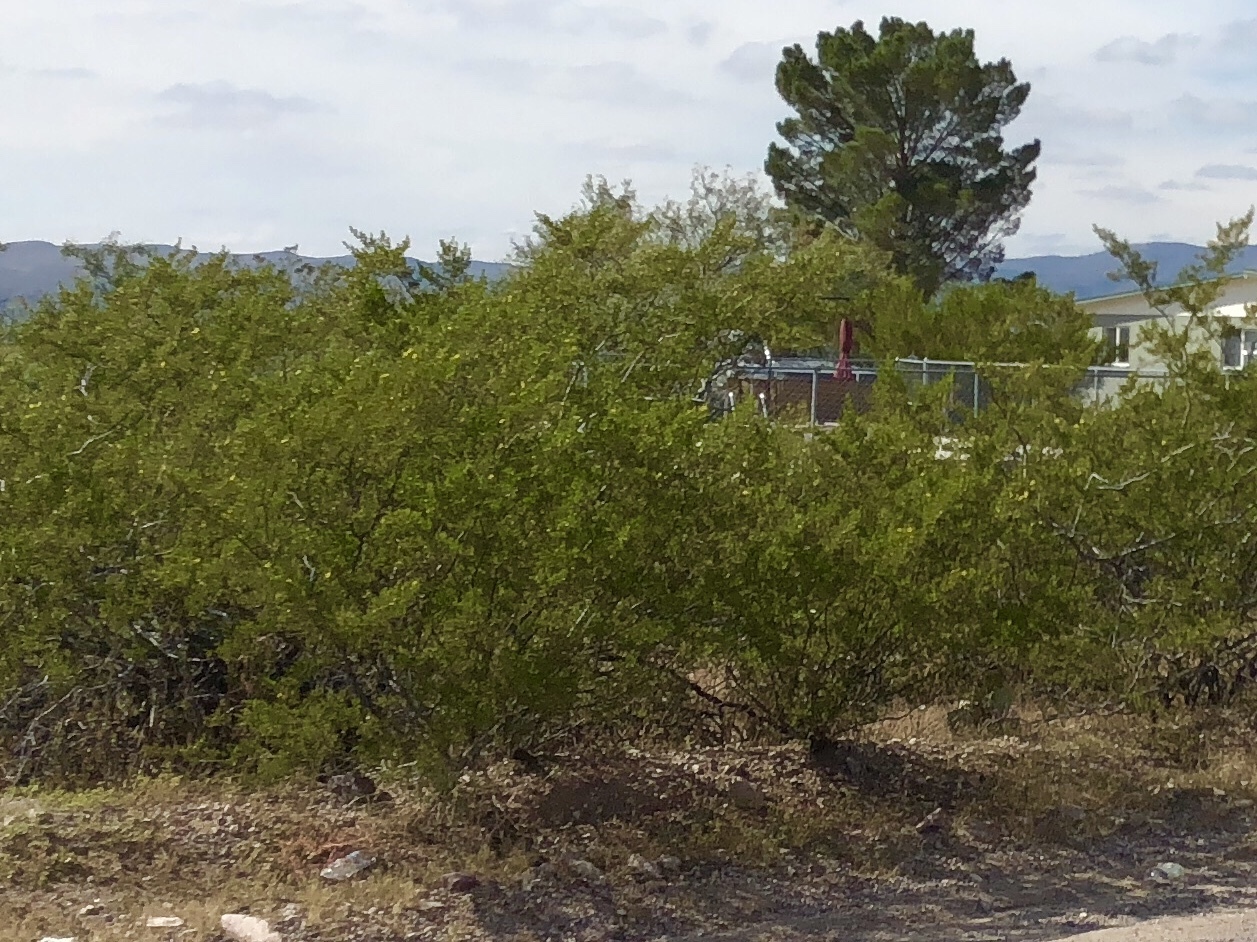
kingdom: Plantae
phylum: Tracheophyta
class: Magnoliopsida
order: Zygophyllales
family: Zygophyllaceae
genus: Larrea
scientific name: Larrea tridentata
